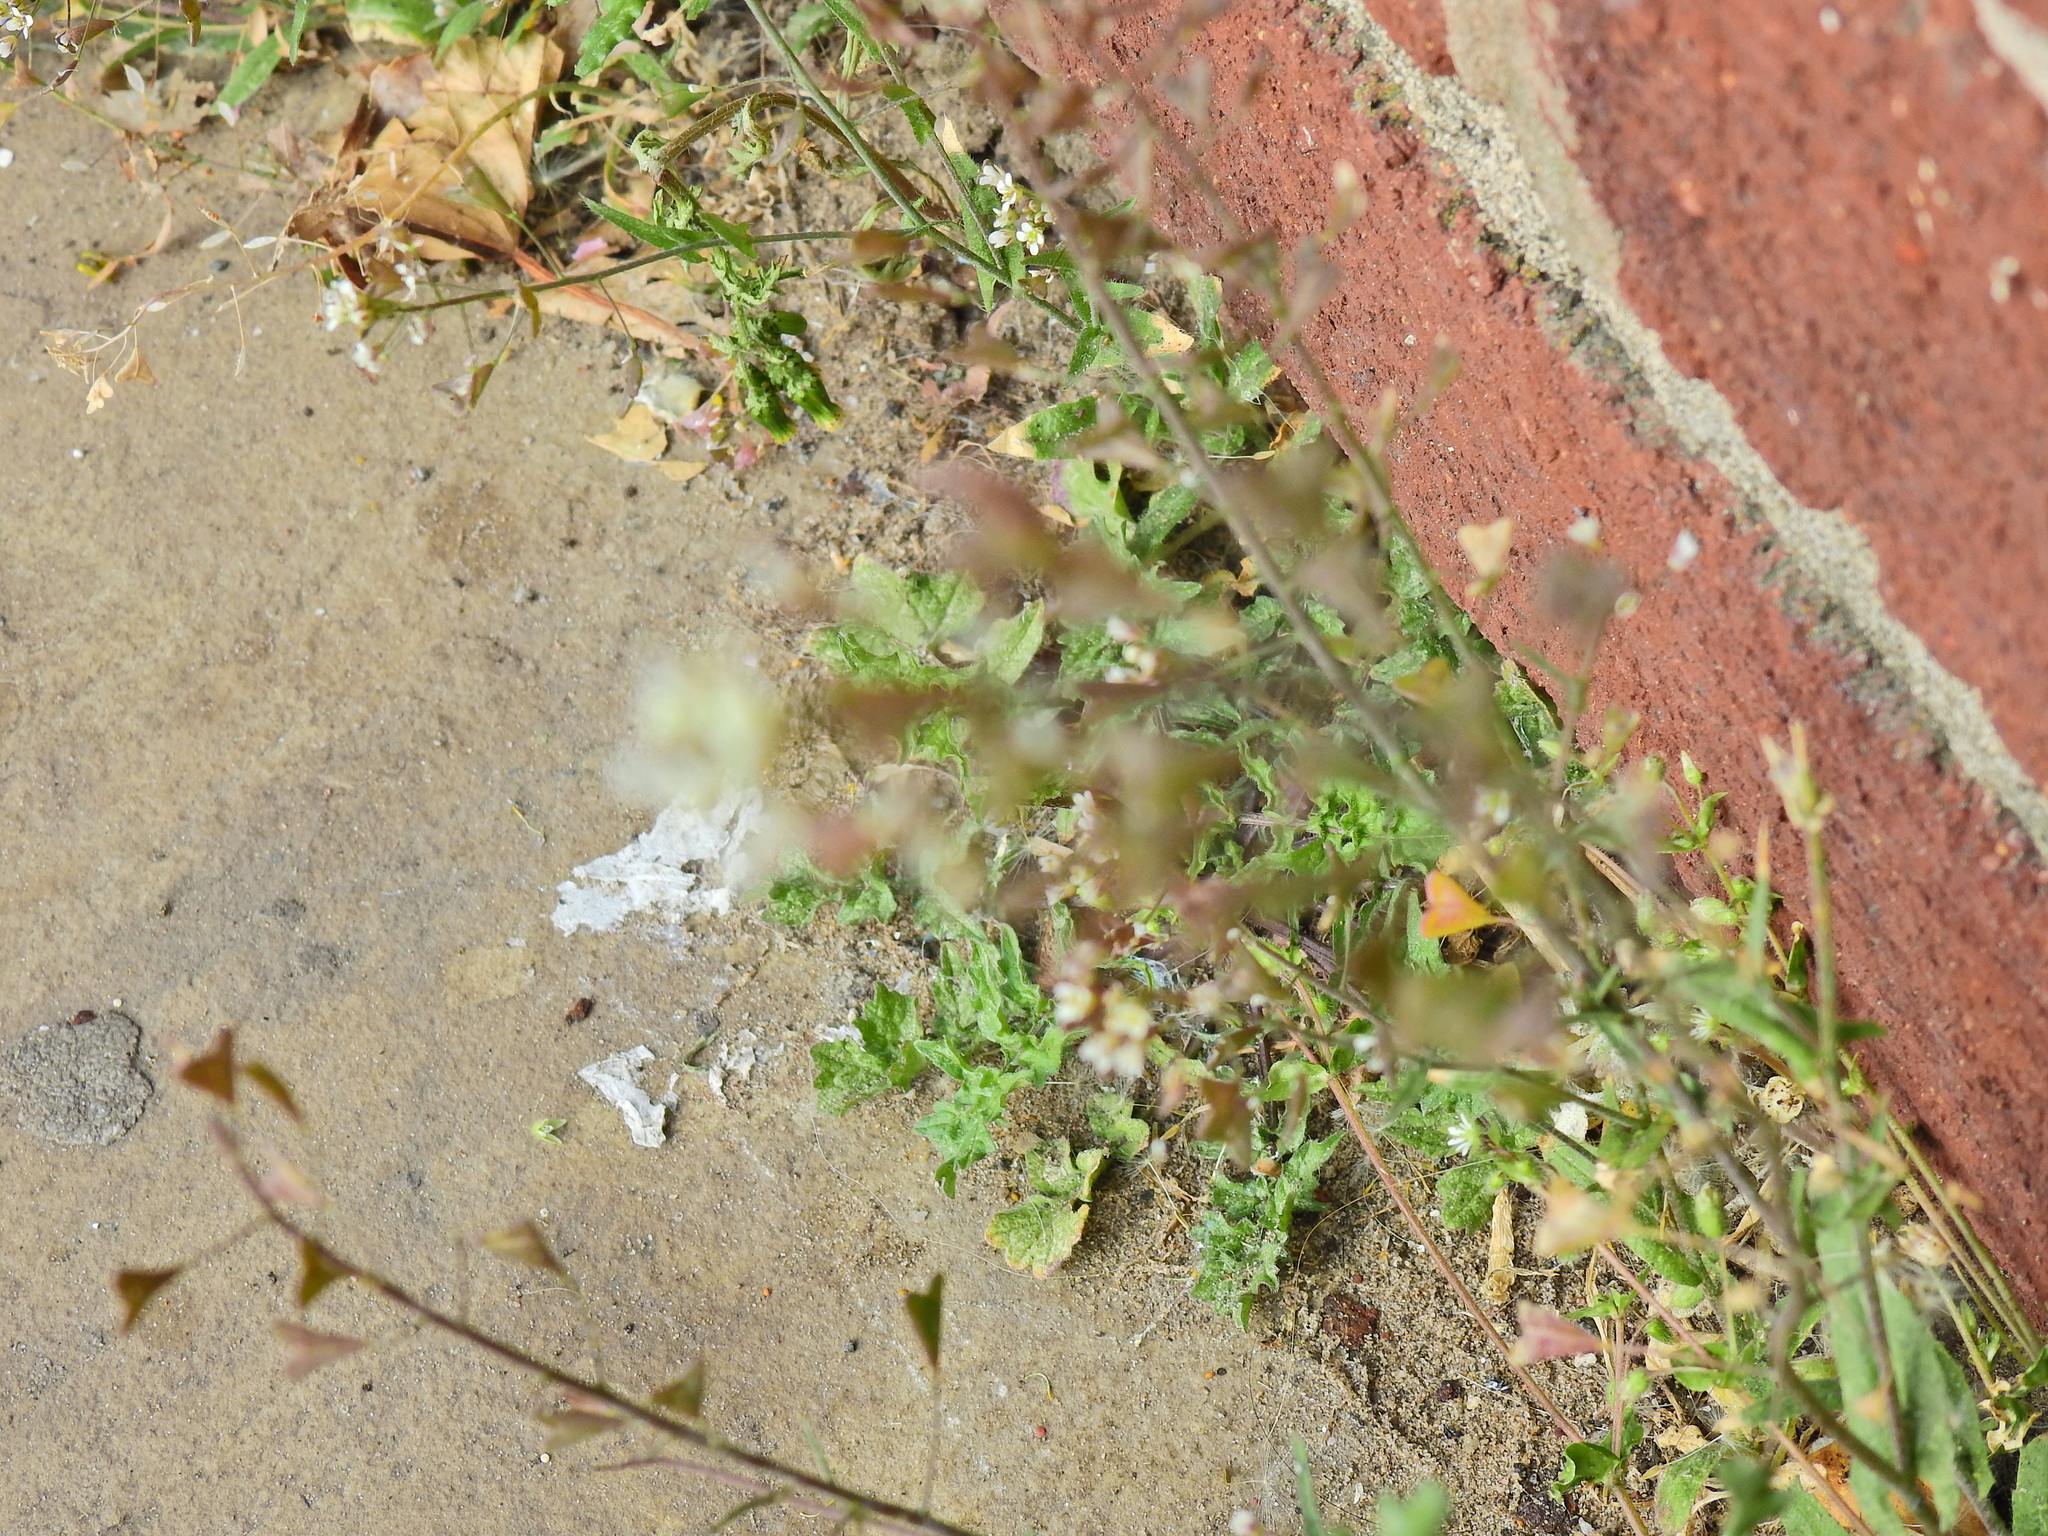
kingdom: Plantae
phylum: Tracheophyta
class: Magnoliopsida
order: Brassicales
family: Brassicaceae
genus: Capsella
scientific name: Capsella bursa-pastoris
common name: Shepherd's purse
